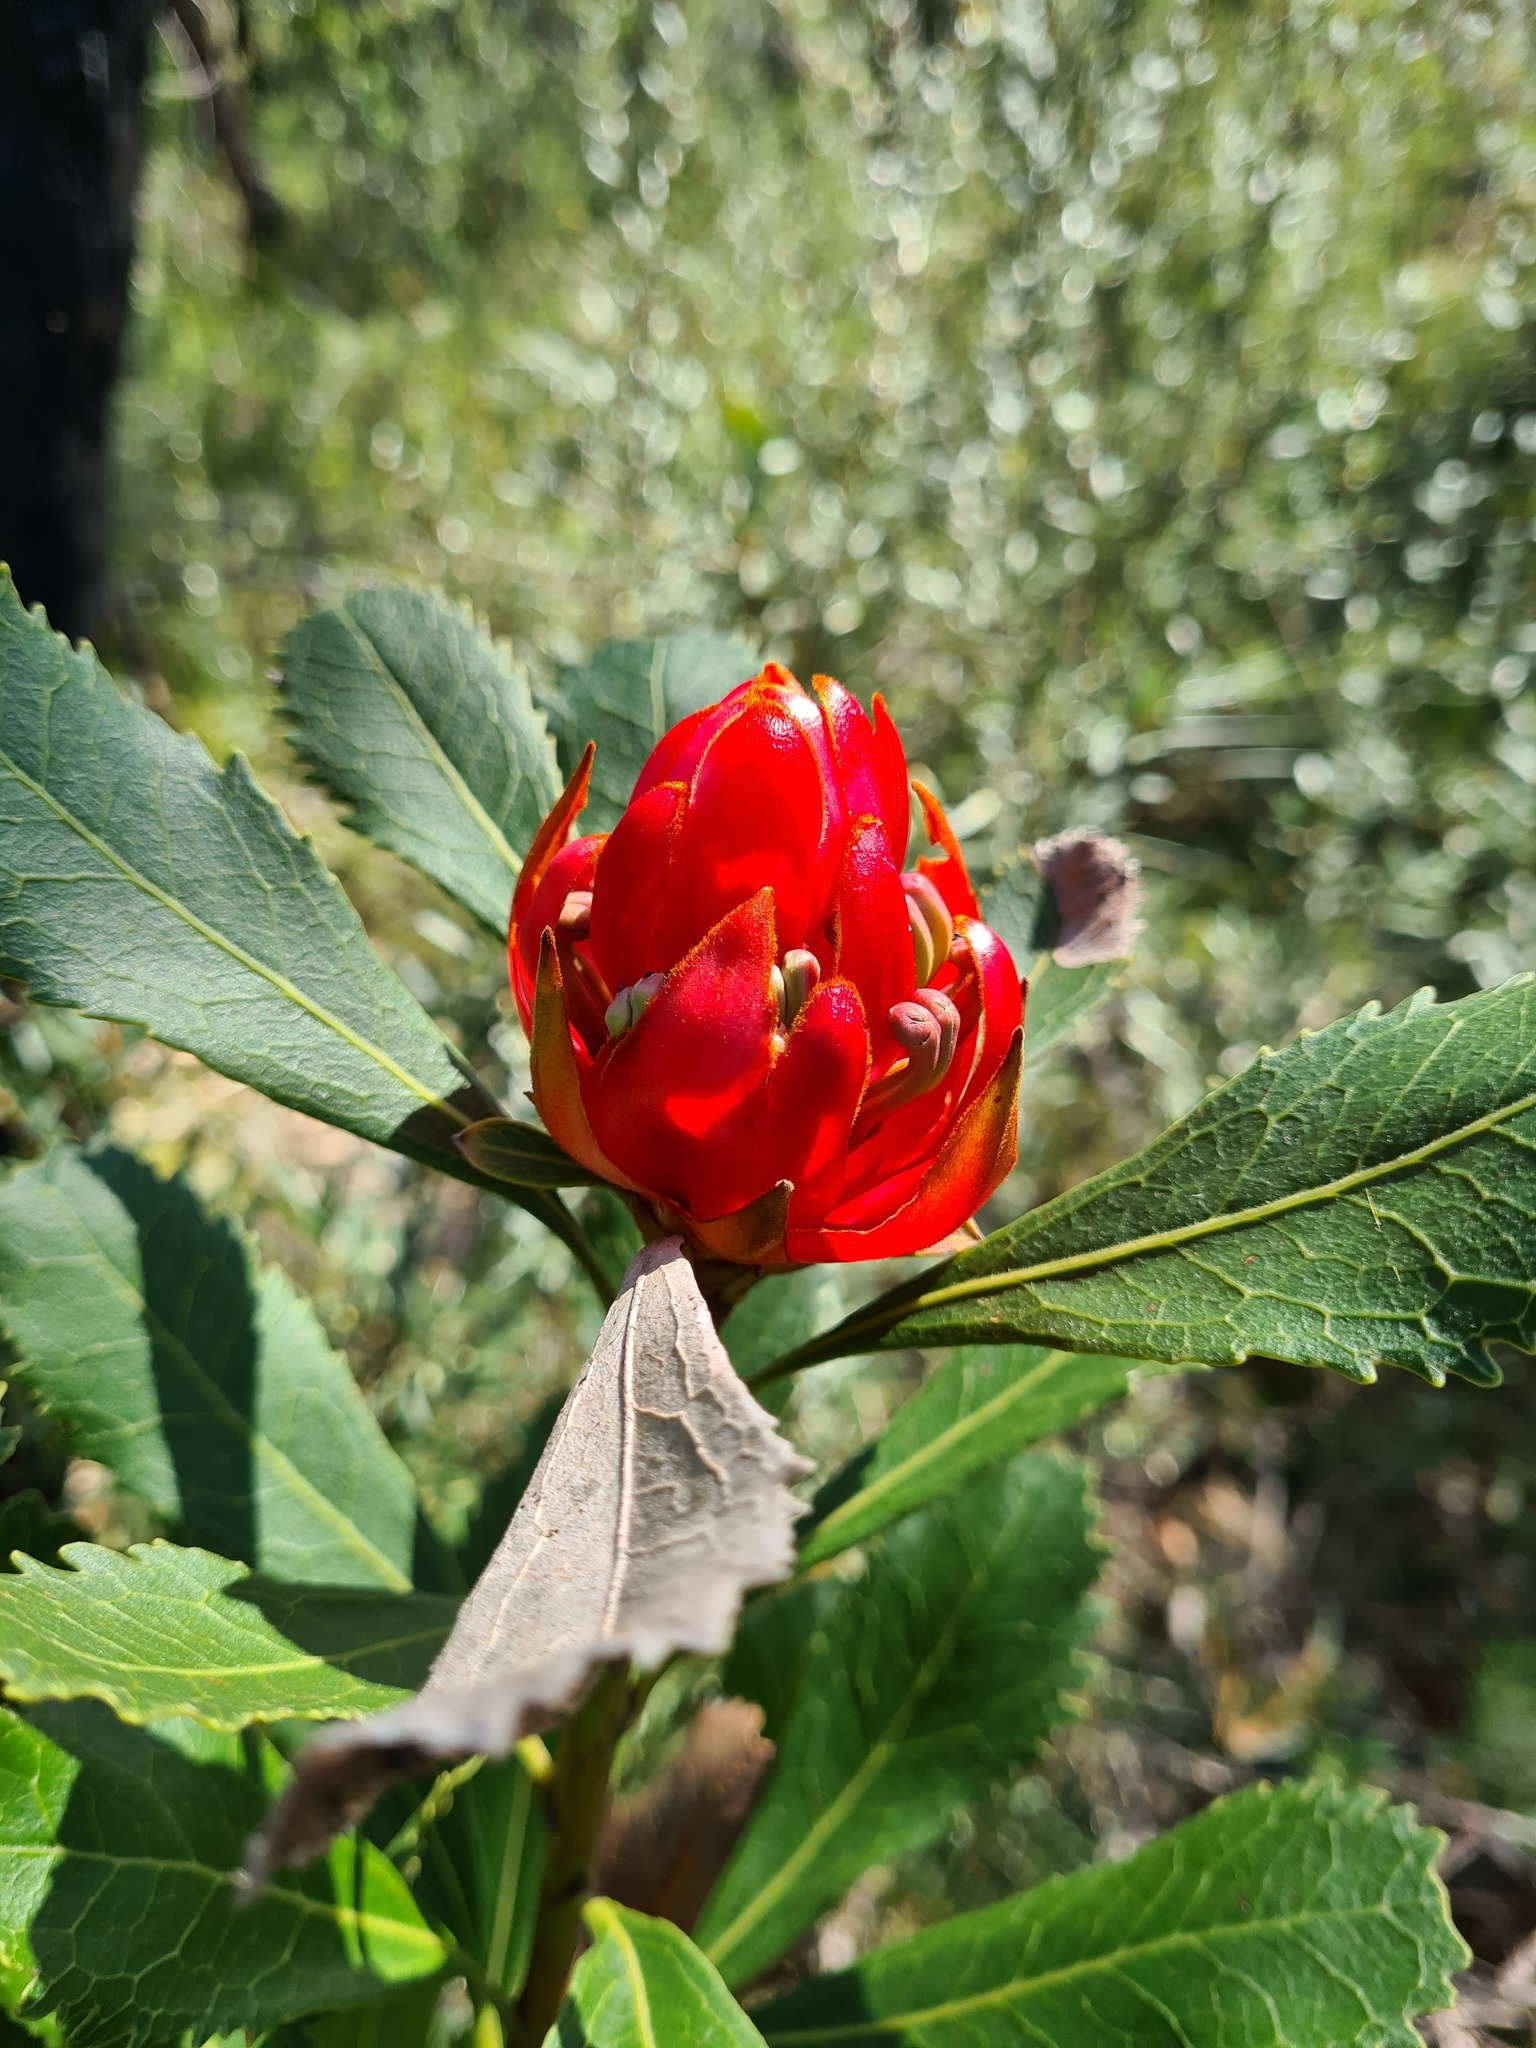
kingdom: Plantae
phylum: Tracheophyta
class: Magnoliopsida
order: Proteales
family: Proteaceae
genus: Telopea
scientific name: Telopea speciosissima
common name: New south wales waratah
